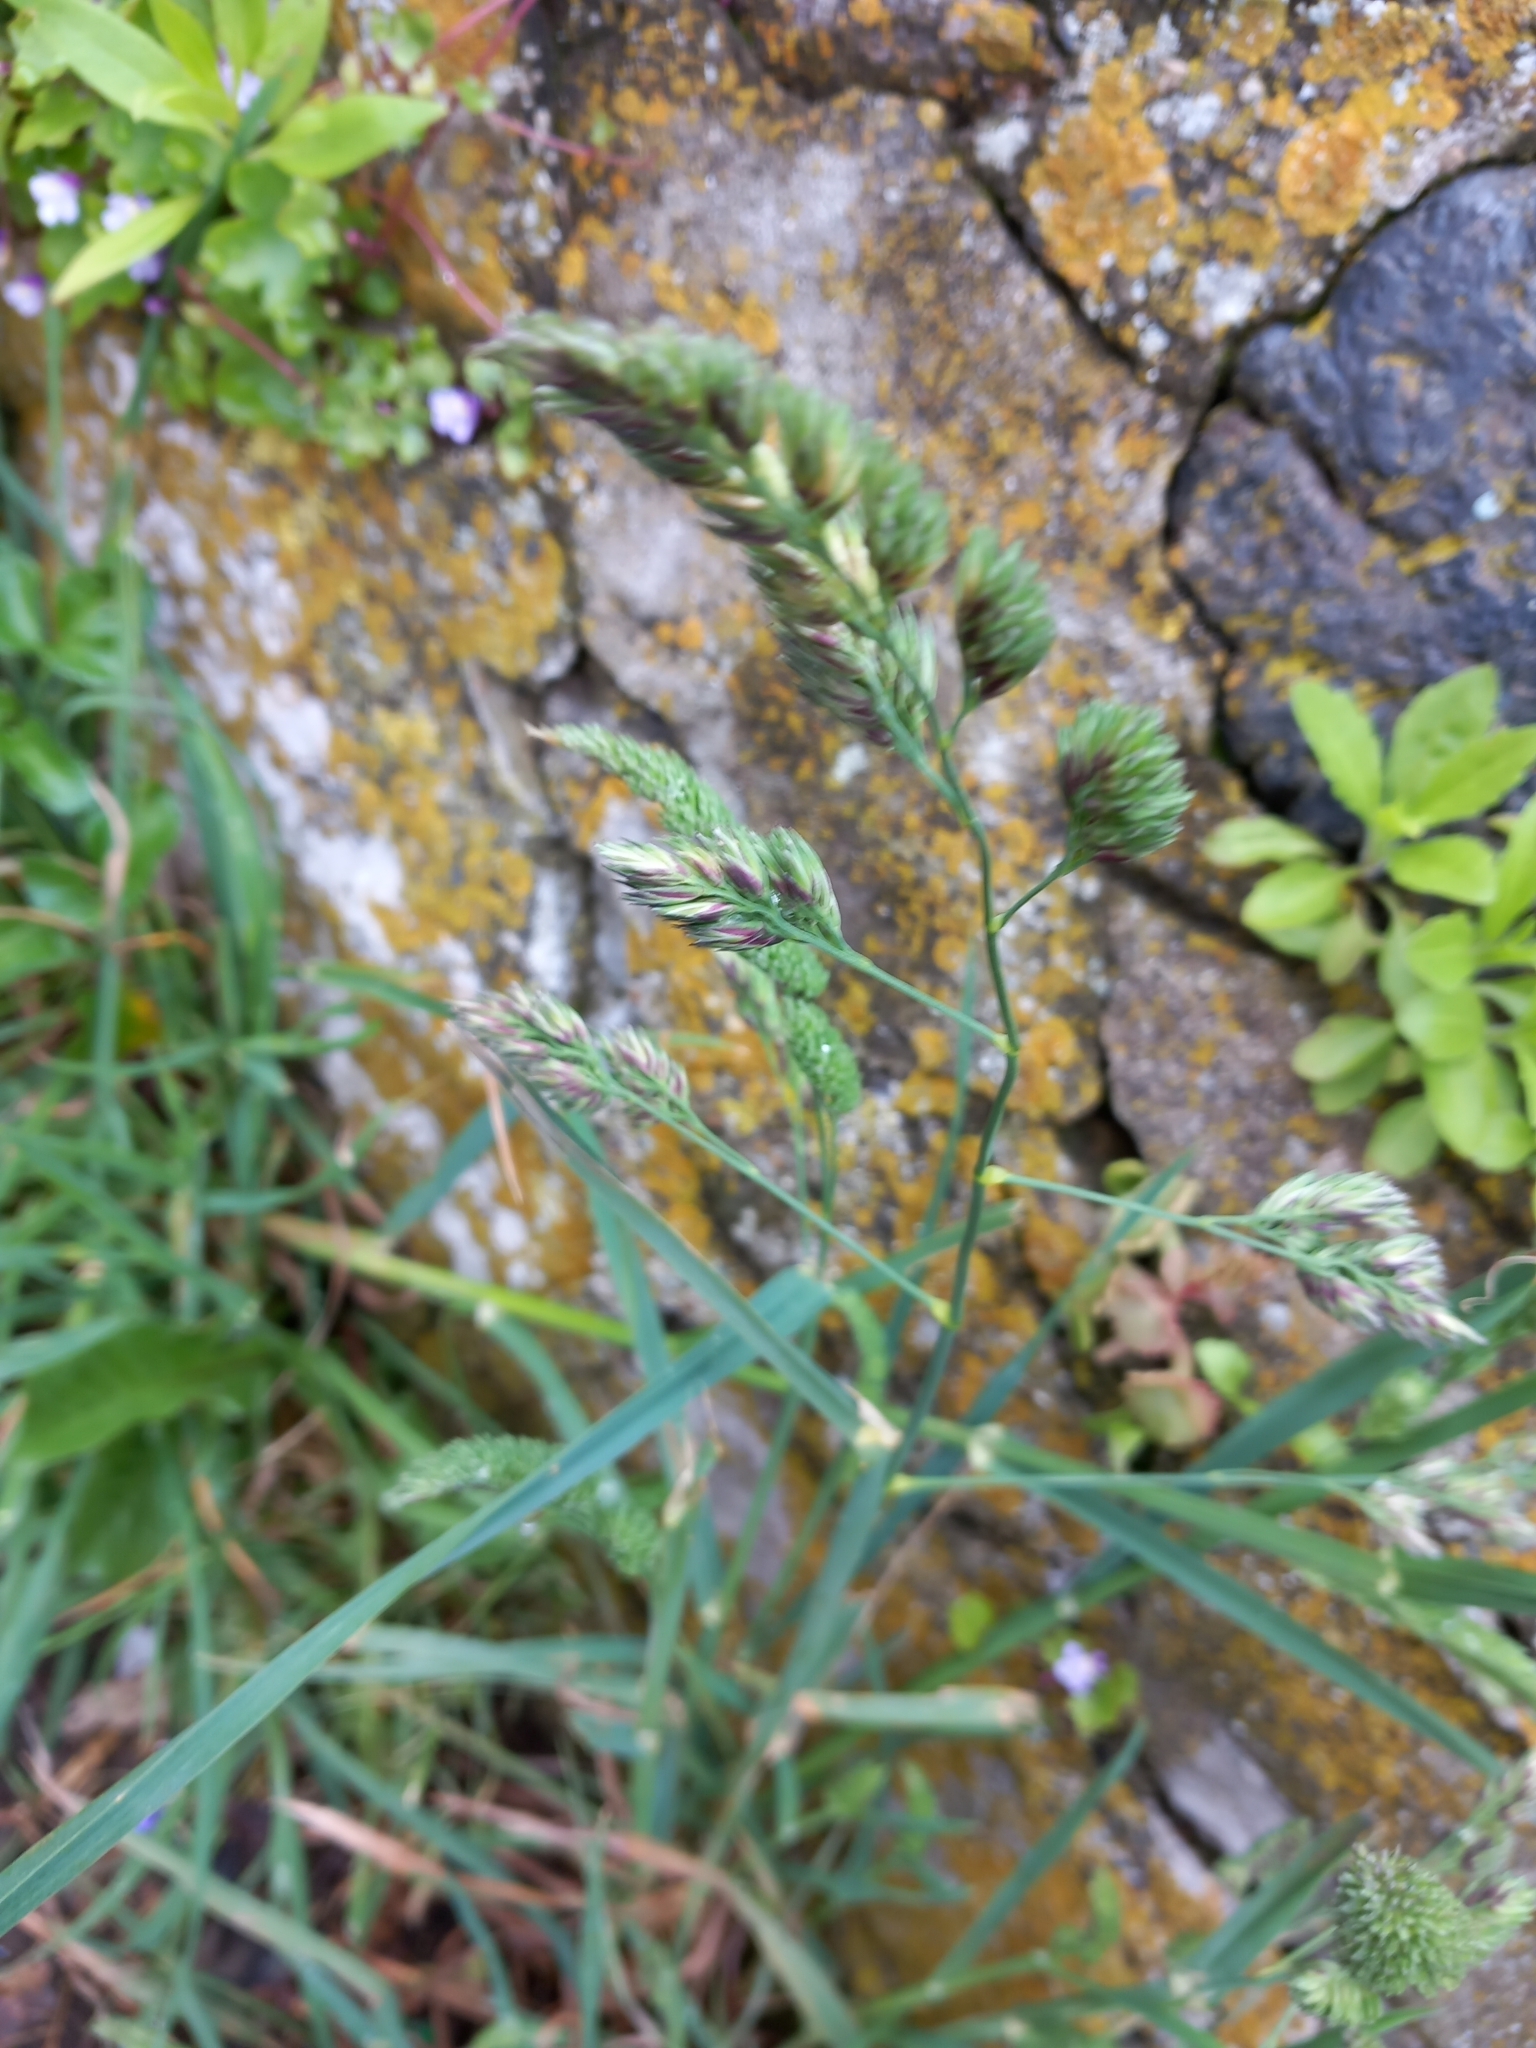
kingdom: Plantae
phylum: Tracheophyta
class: Liliopsida
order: Poales
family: Poaceae
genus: Dactylis
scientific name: Dactylis glomerata
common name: Orchardgrass
